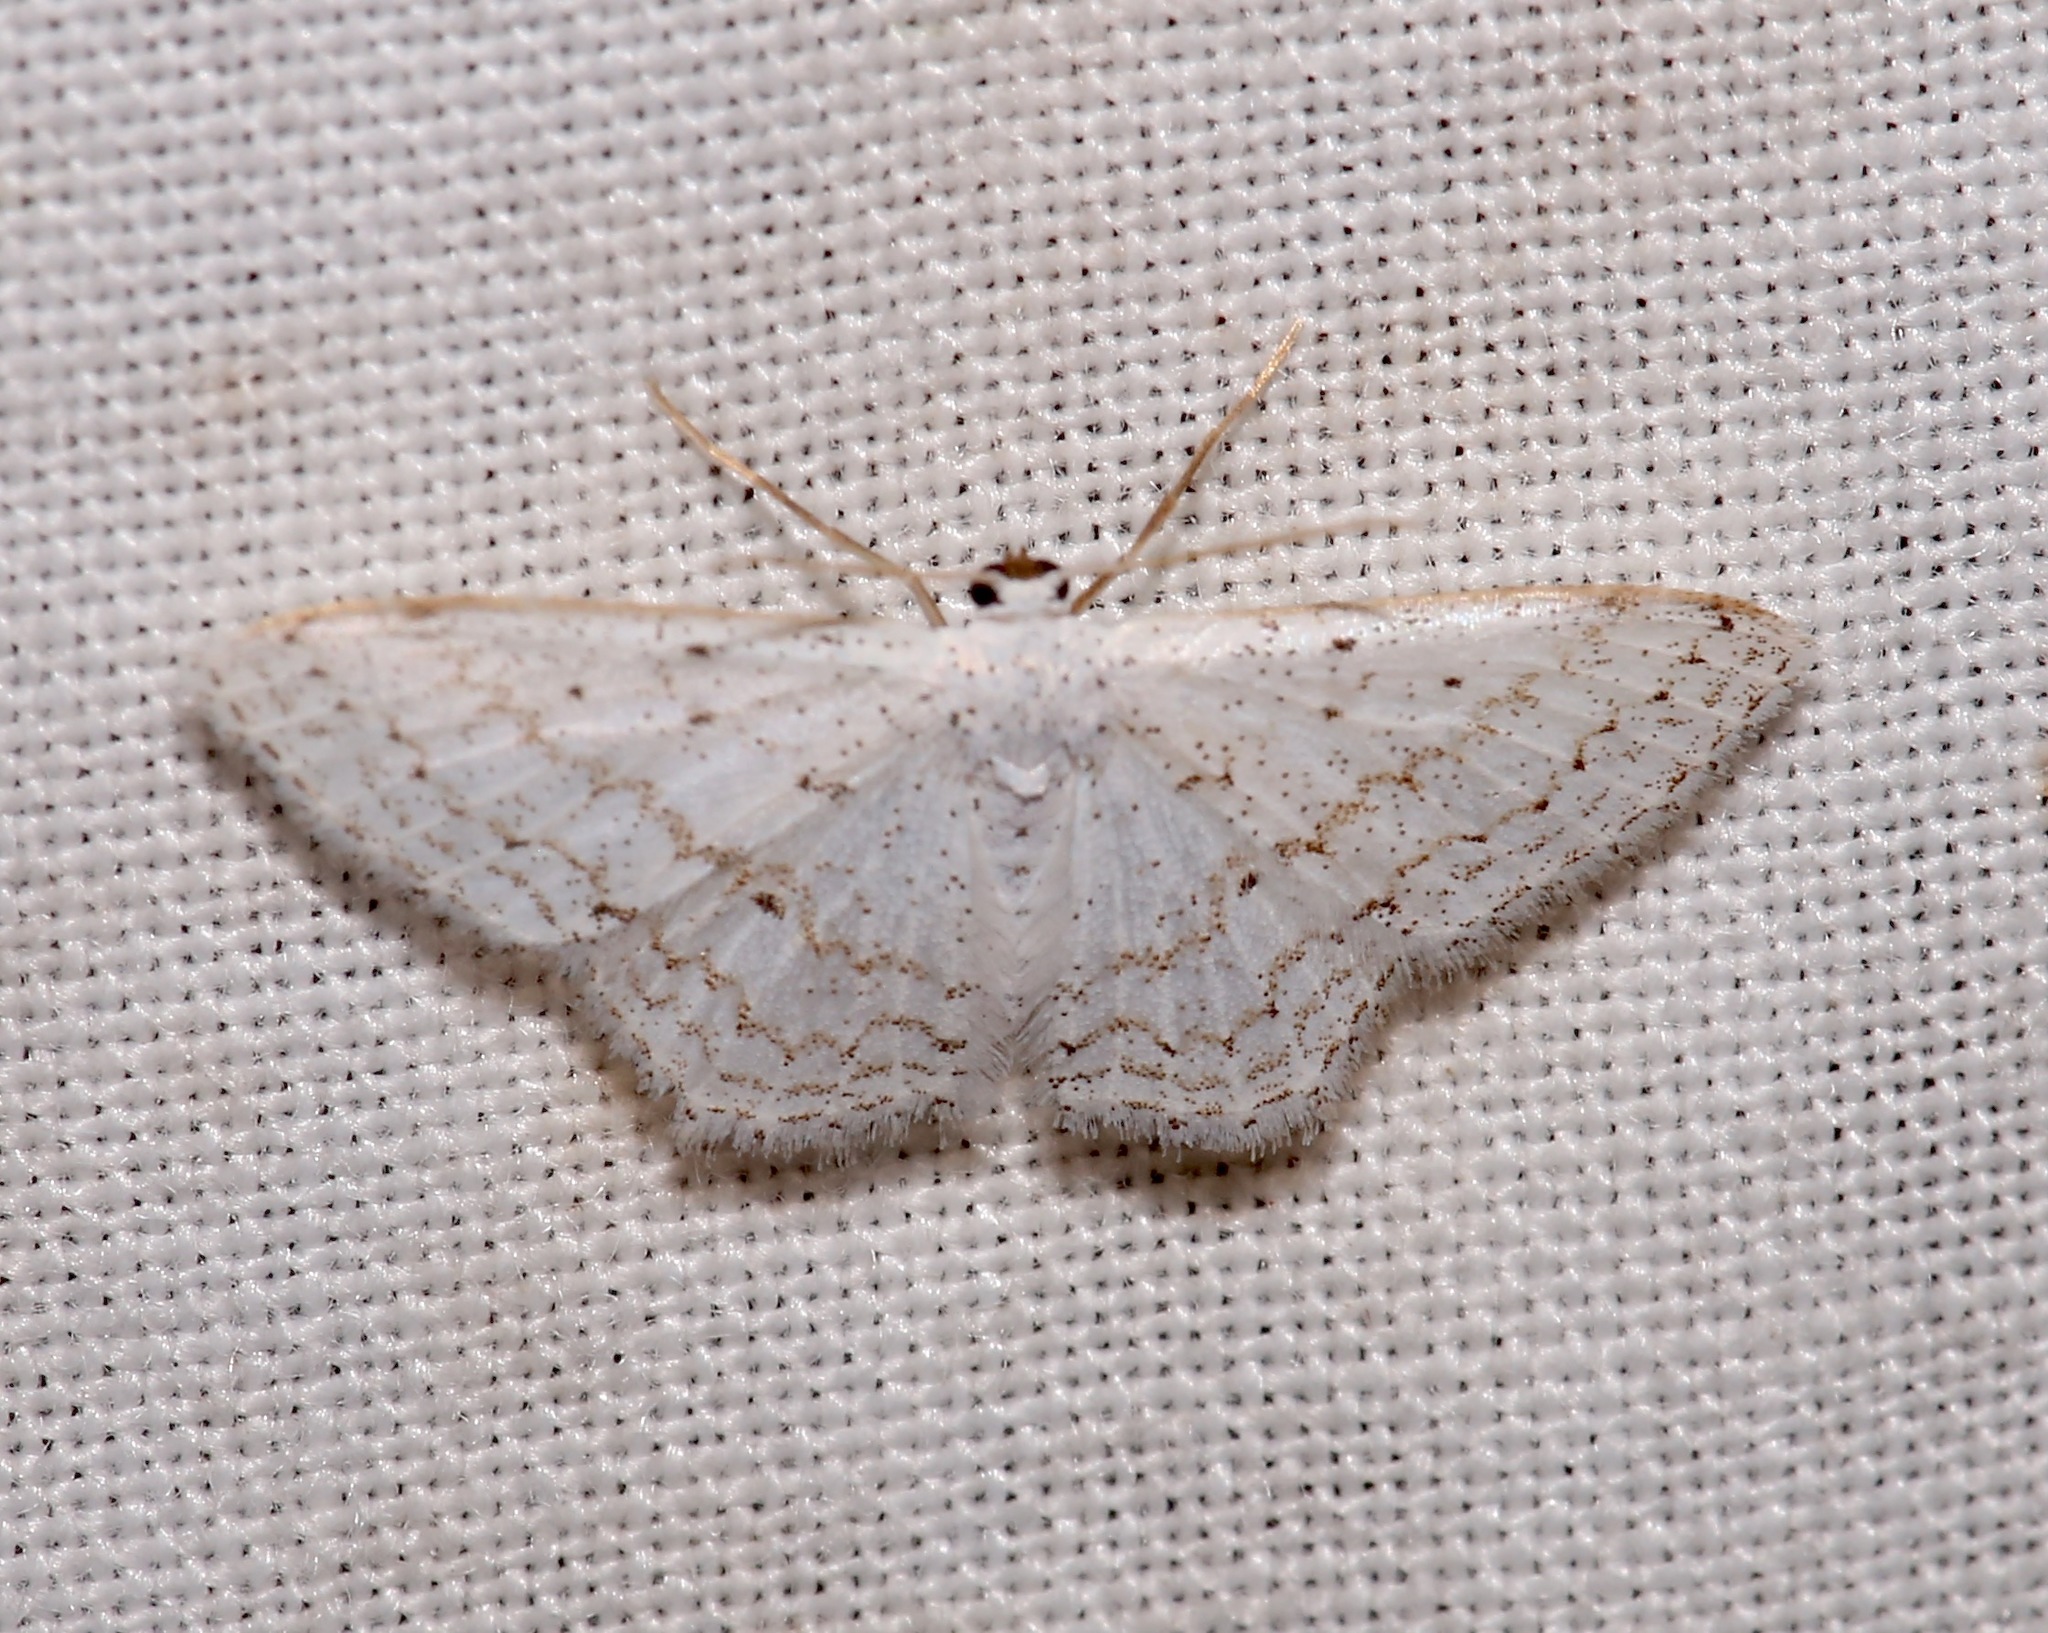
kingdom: Animalia
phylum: Arthropoda
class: Insecta
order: Lepidoptera
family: Geometridae
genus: Idaea
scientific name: Idaea tacturata
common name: Dot-lined wave
